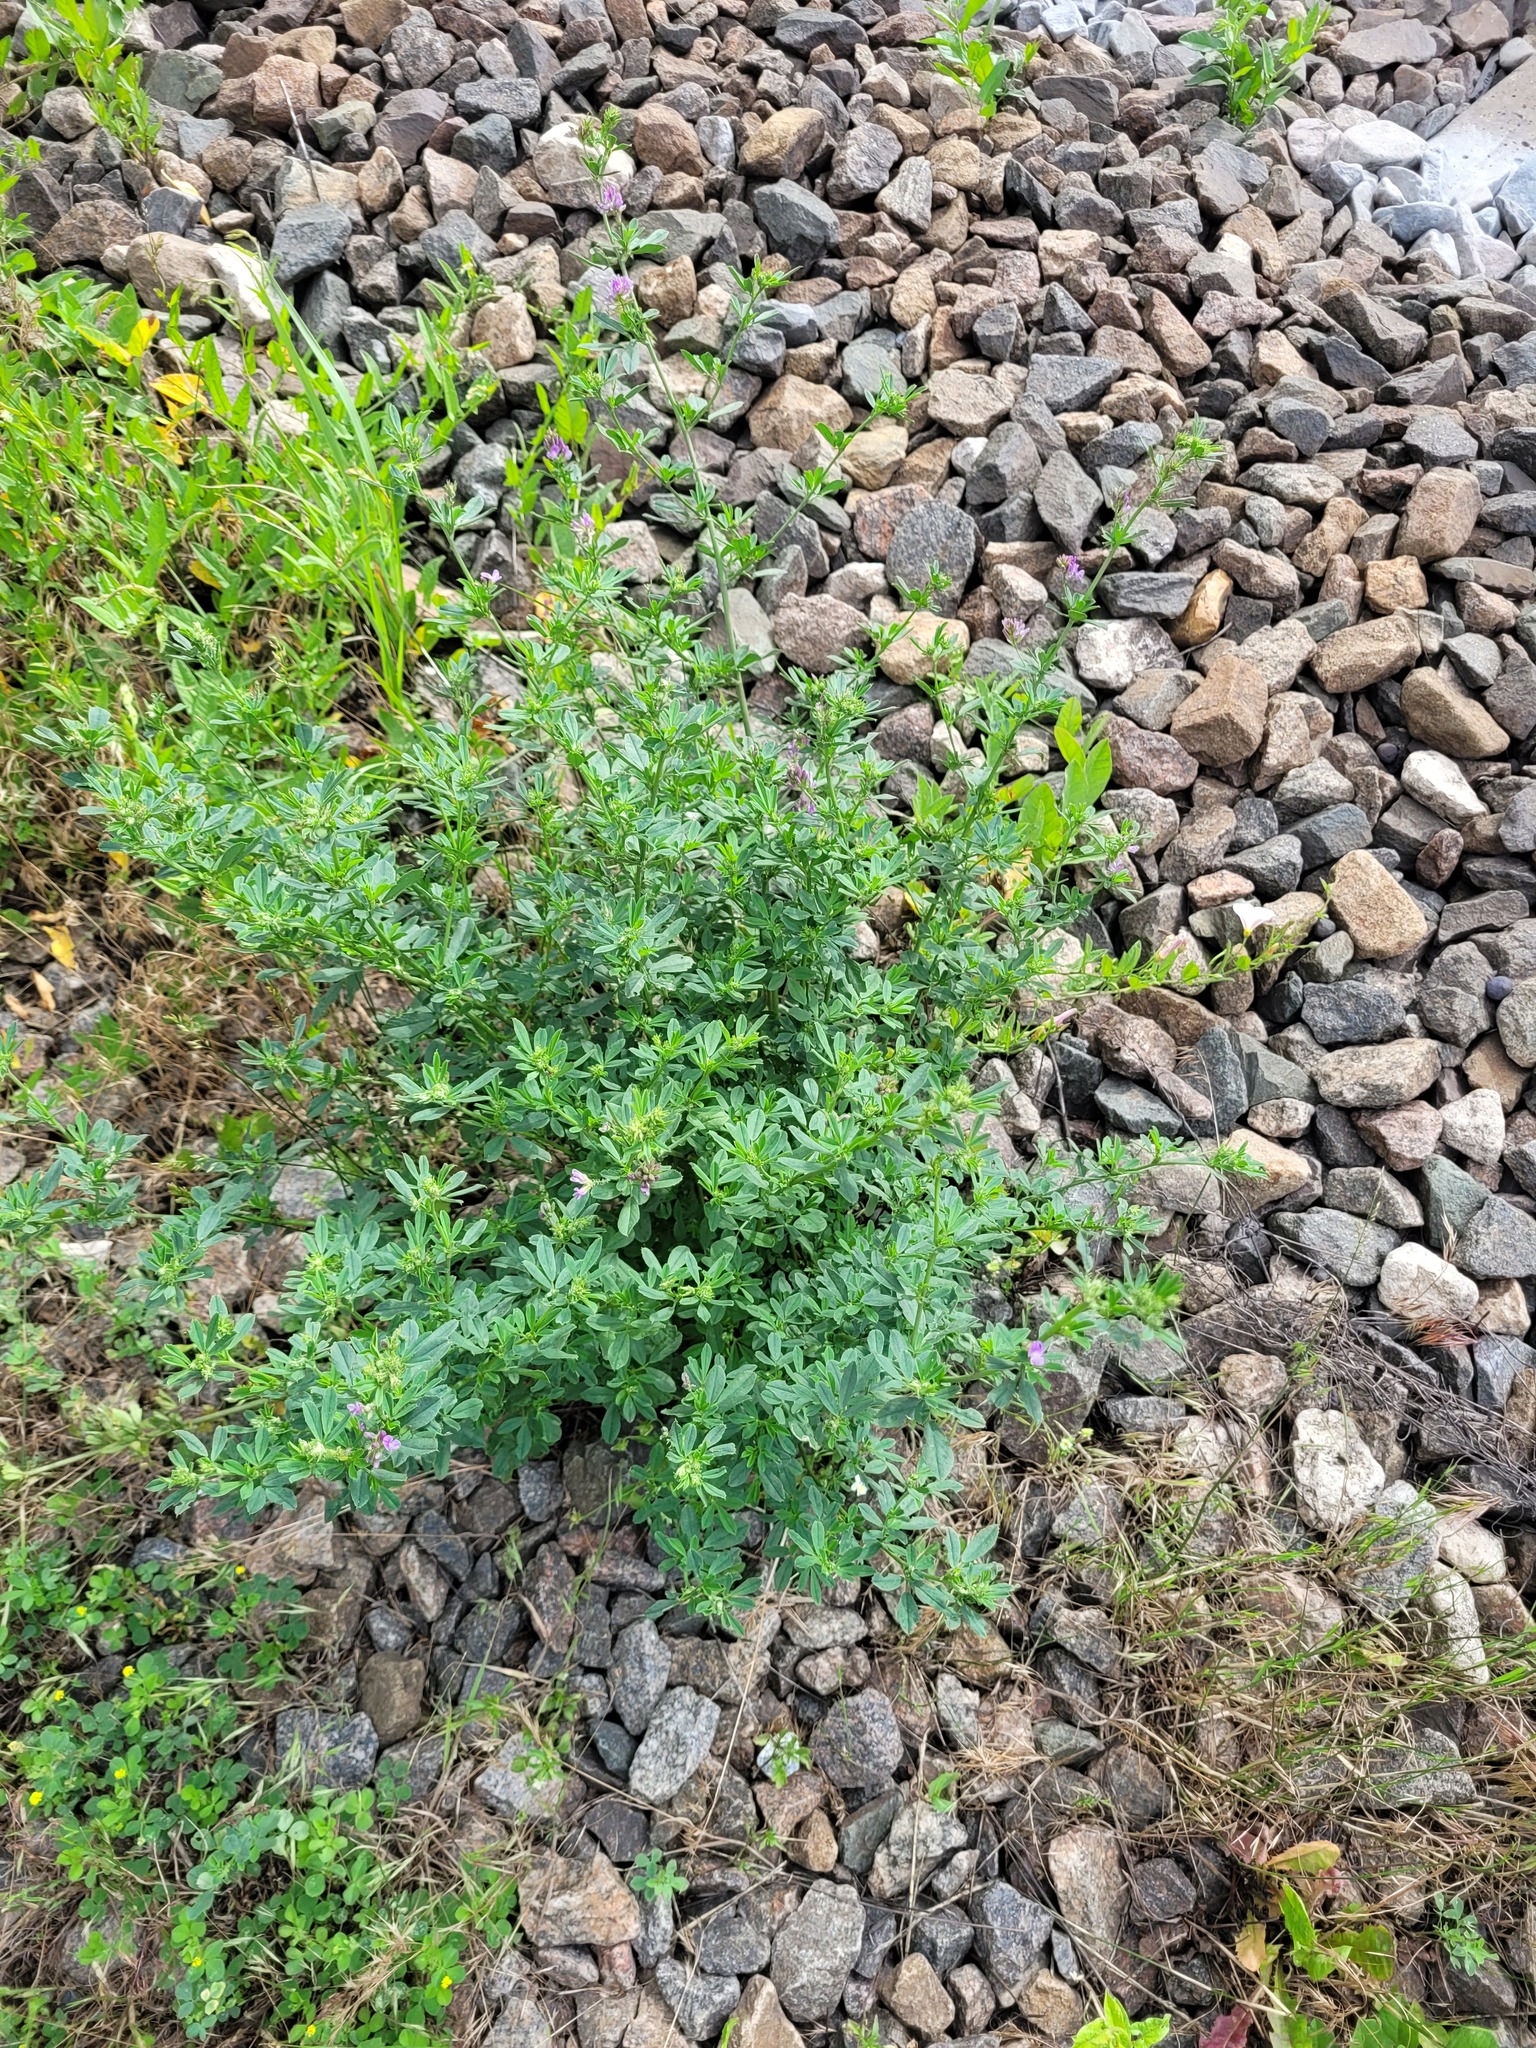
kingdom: Plantae
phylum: Tracheophyta
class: Magnoliopsida
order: Fabales
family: Fabaceae
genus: Medicago
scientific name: Medicago
